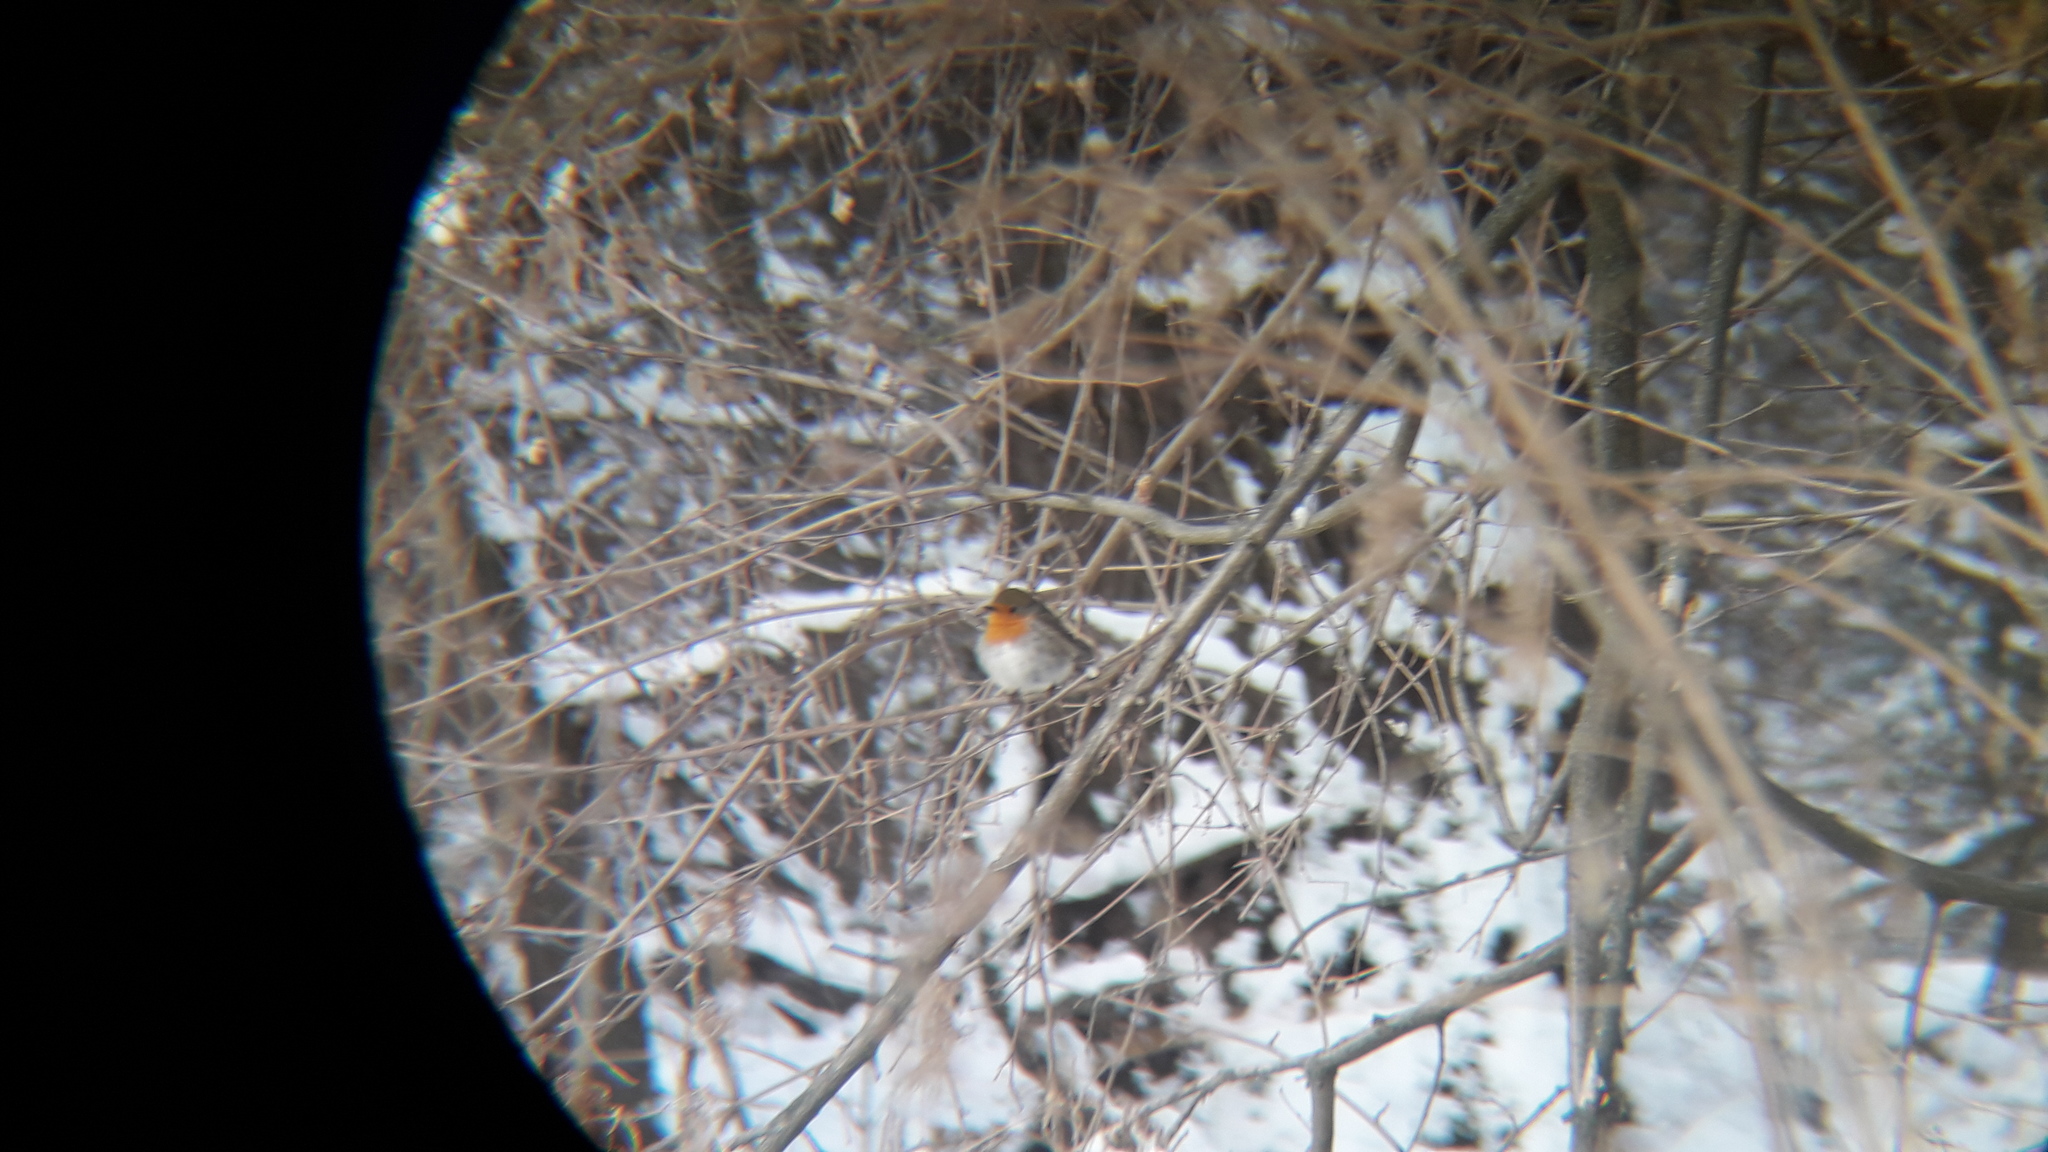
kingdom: Animalia
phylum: Chordata
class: Aves
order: Passeriformes
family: Muscicapidae
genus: Erithacus
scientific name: Erithacus rubecula
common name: European robin
